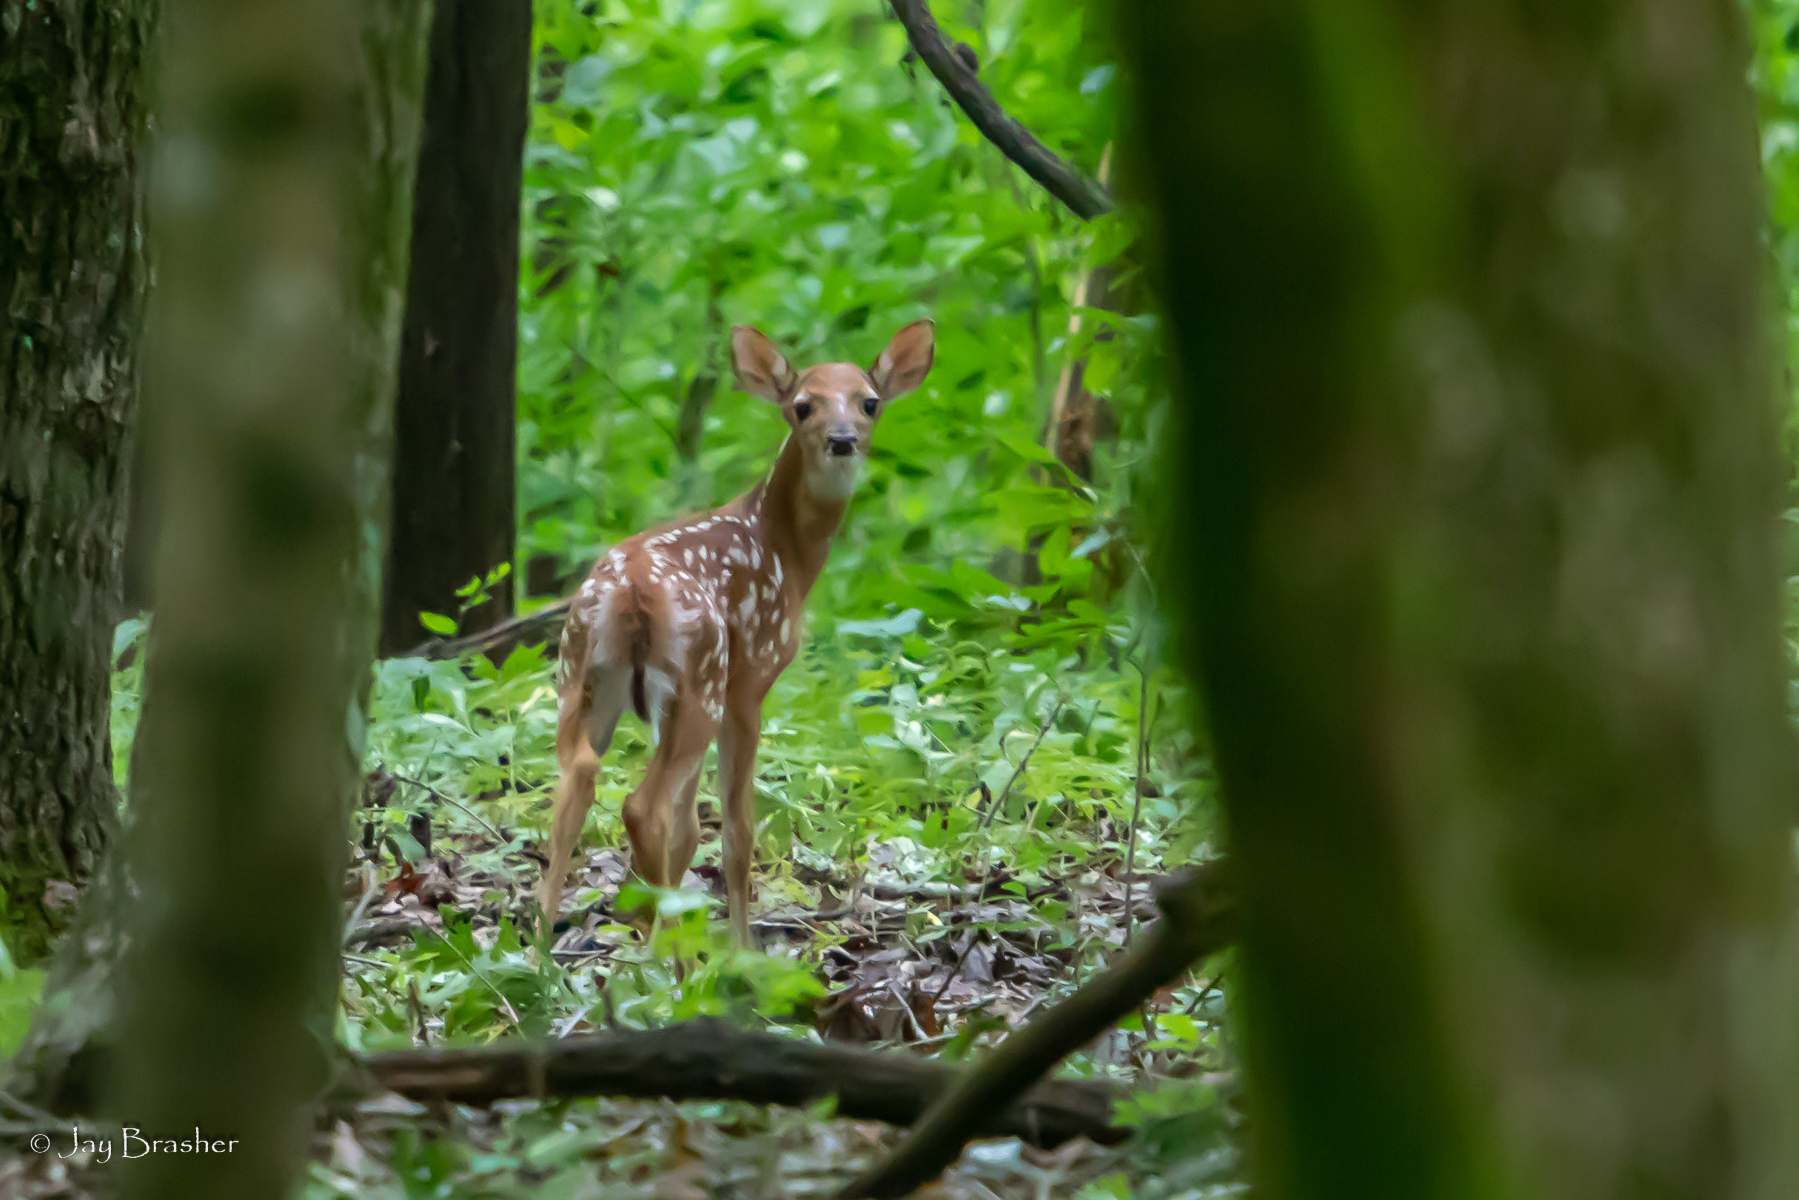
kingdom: Animalia
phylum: Chordata
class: Mammalia
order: Artiodactyla
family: Cervidae
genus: Odocoileus
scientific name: Odocoileus virginianus
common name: White-tailed deer
